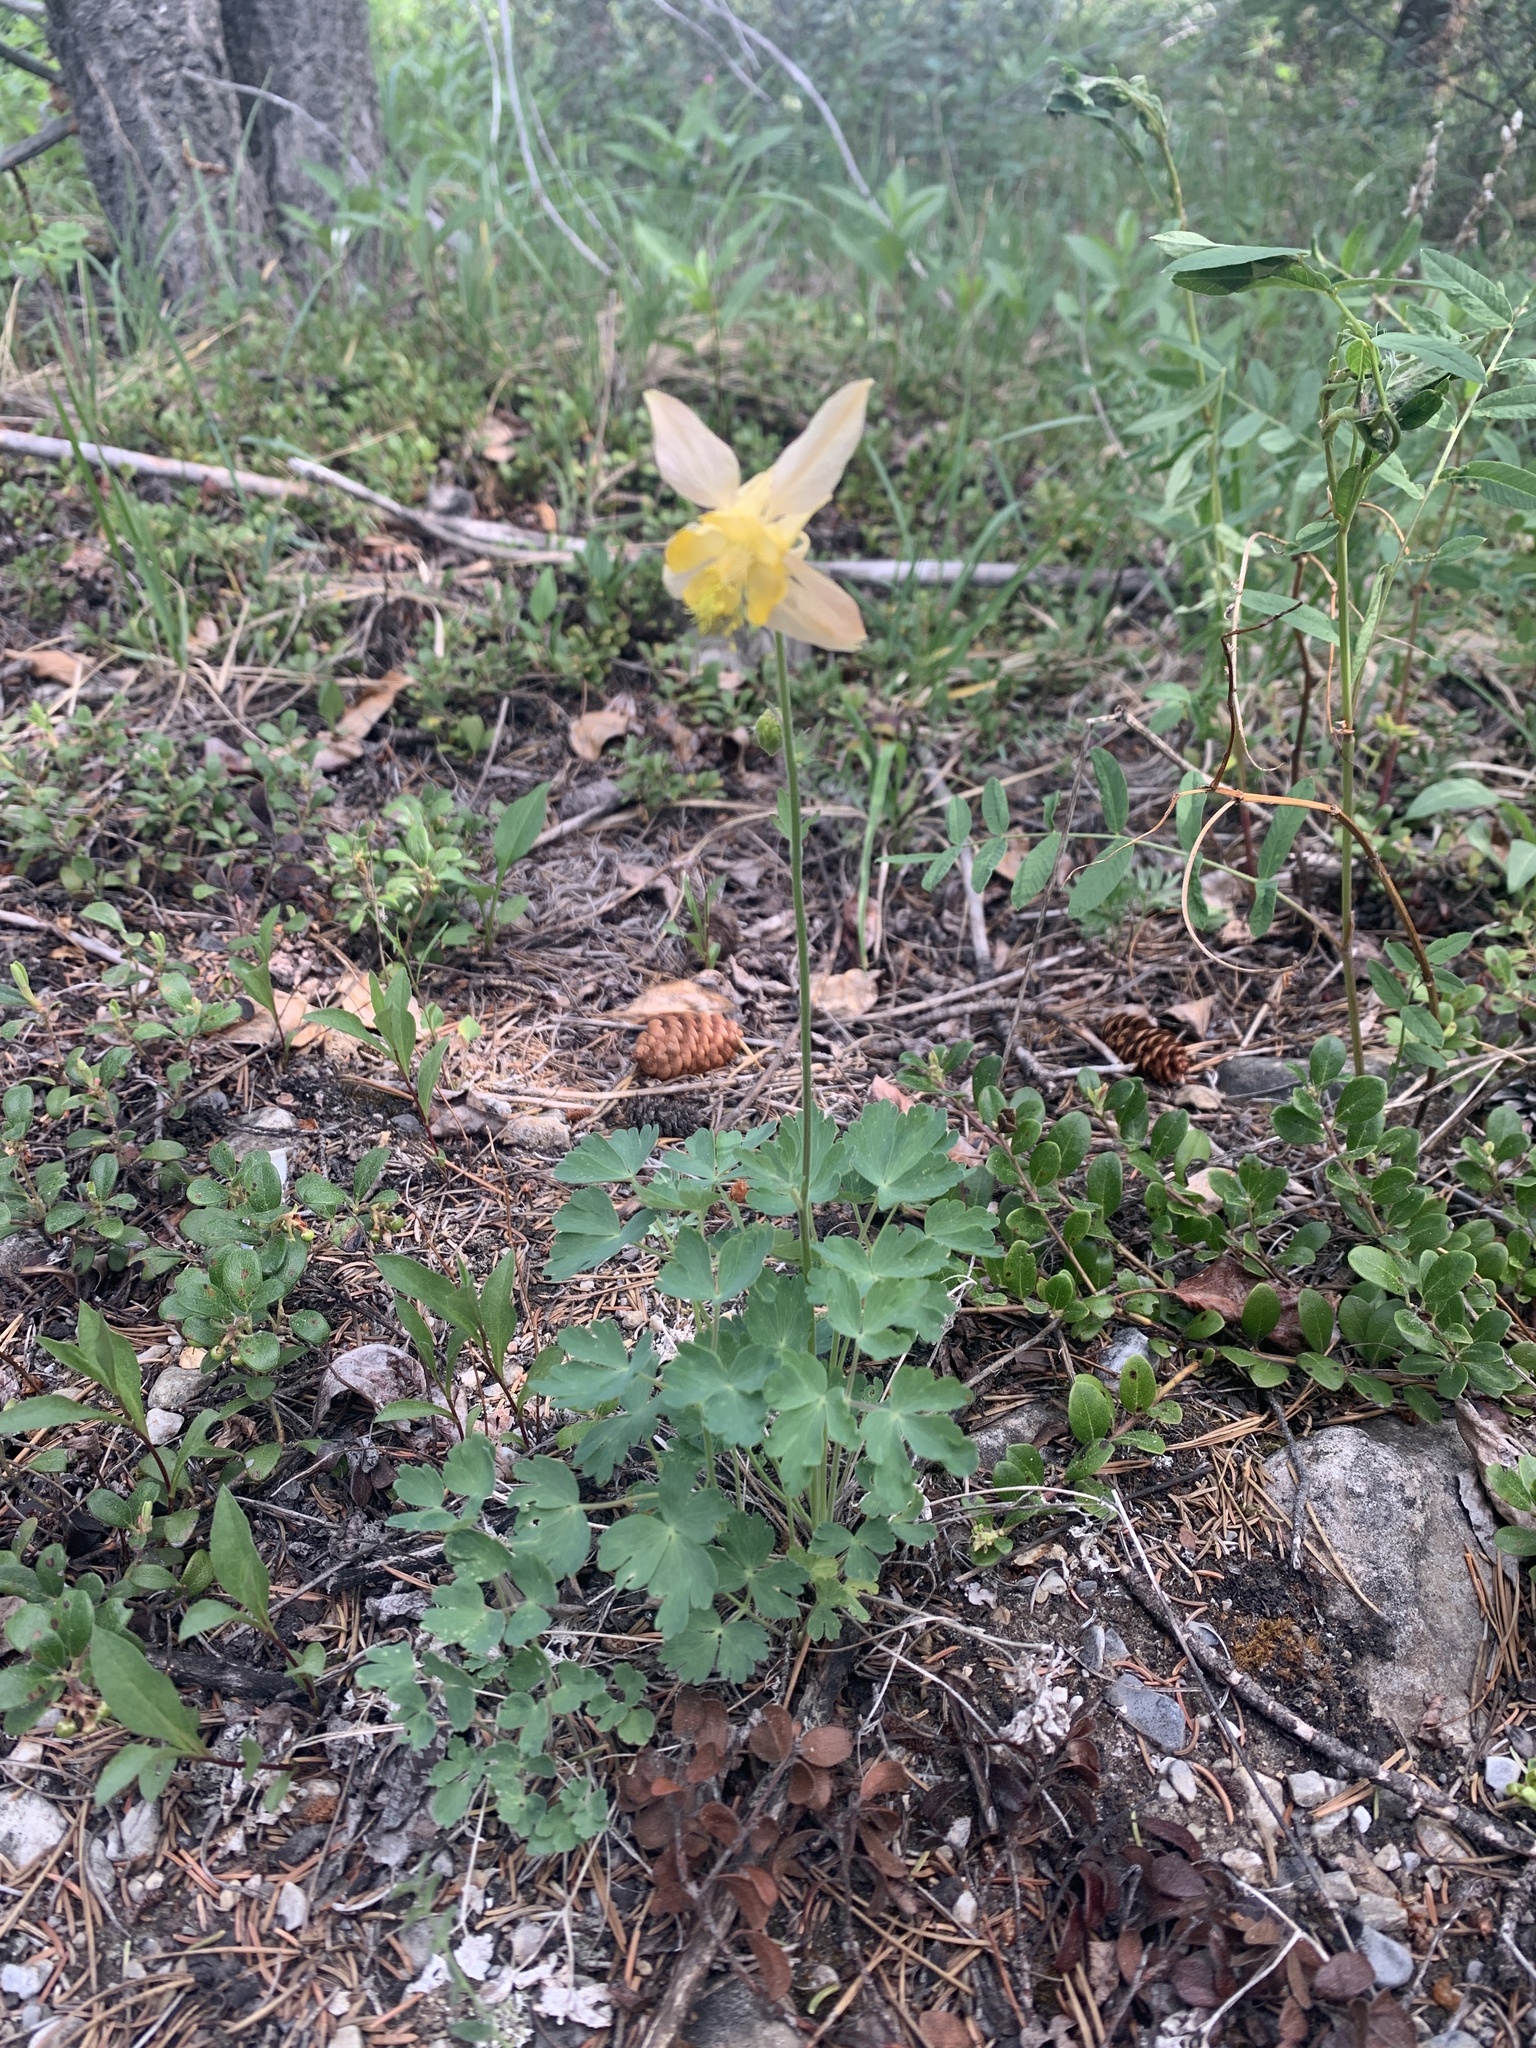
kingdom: Plantae
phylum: Tracheophyta
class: Magnoliopsida
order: Ranunculales
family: Ranunculaceae
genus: Aquilegia
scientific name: Aquilegia flavescens
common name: Yellow columbine
